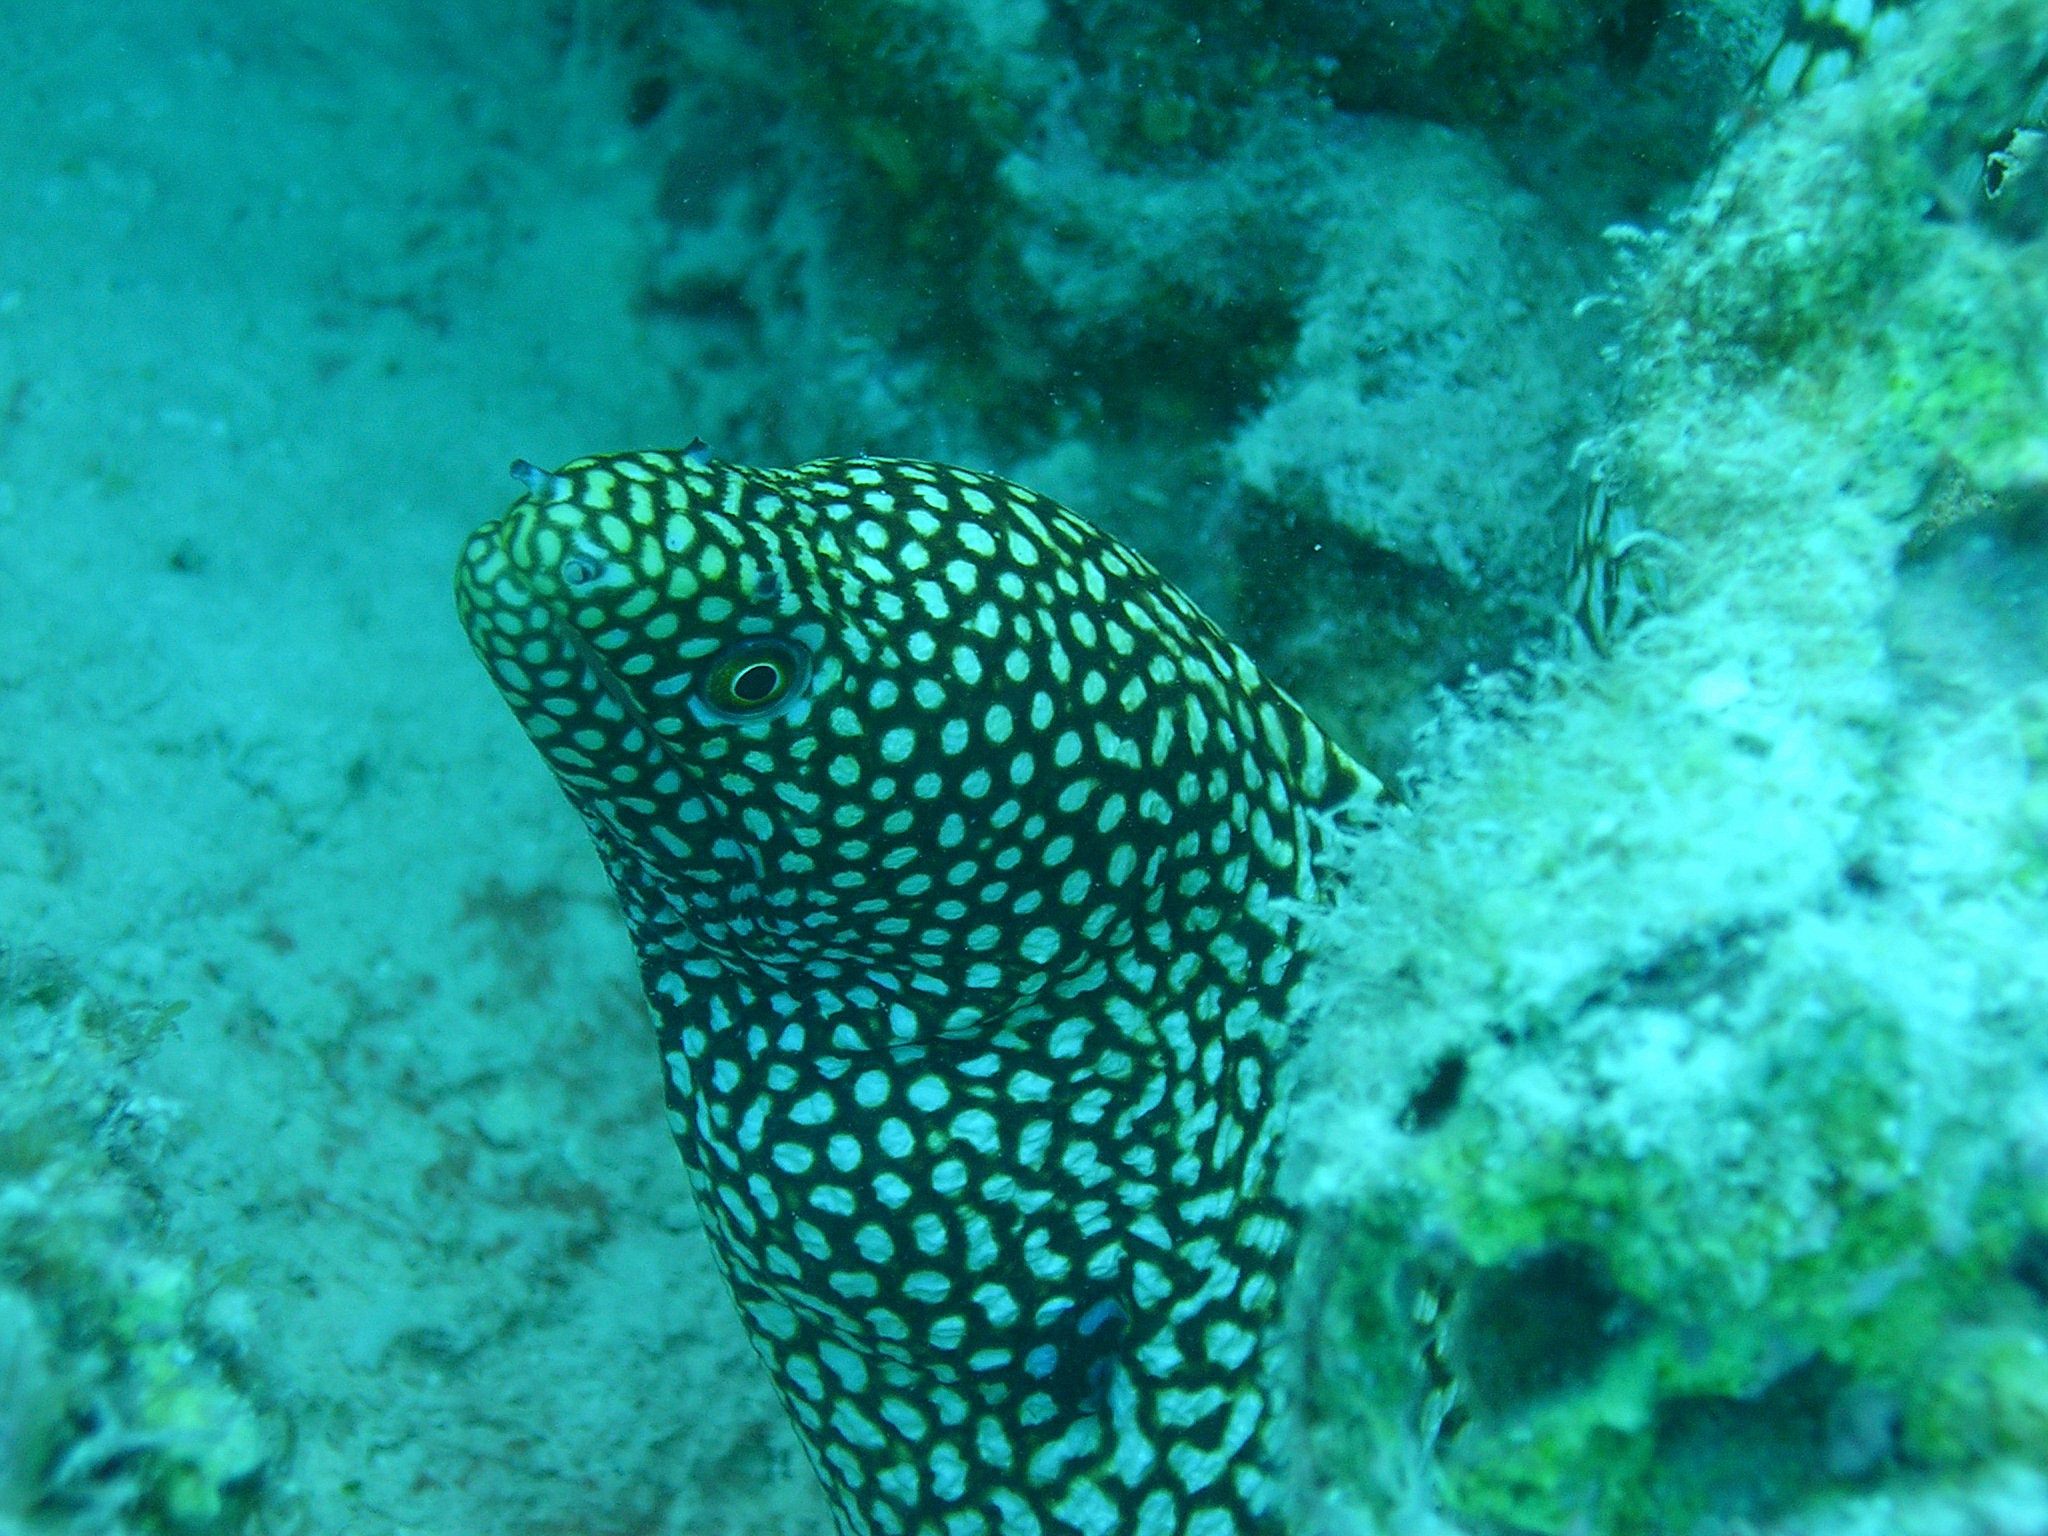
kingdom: Animalia
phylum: Chordata
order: Anguilliformes
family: Muraenidae
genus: Gymnothorax
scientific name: Gymnothorax meleagris
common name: Guineafowl moray
